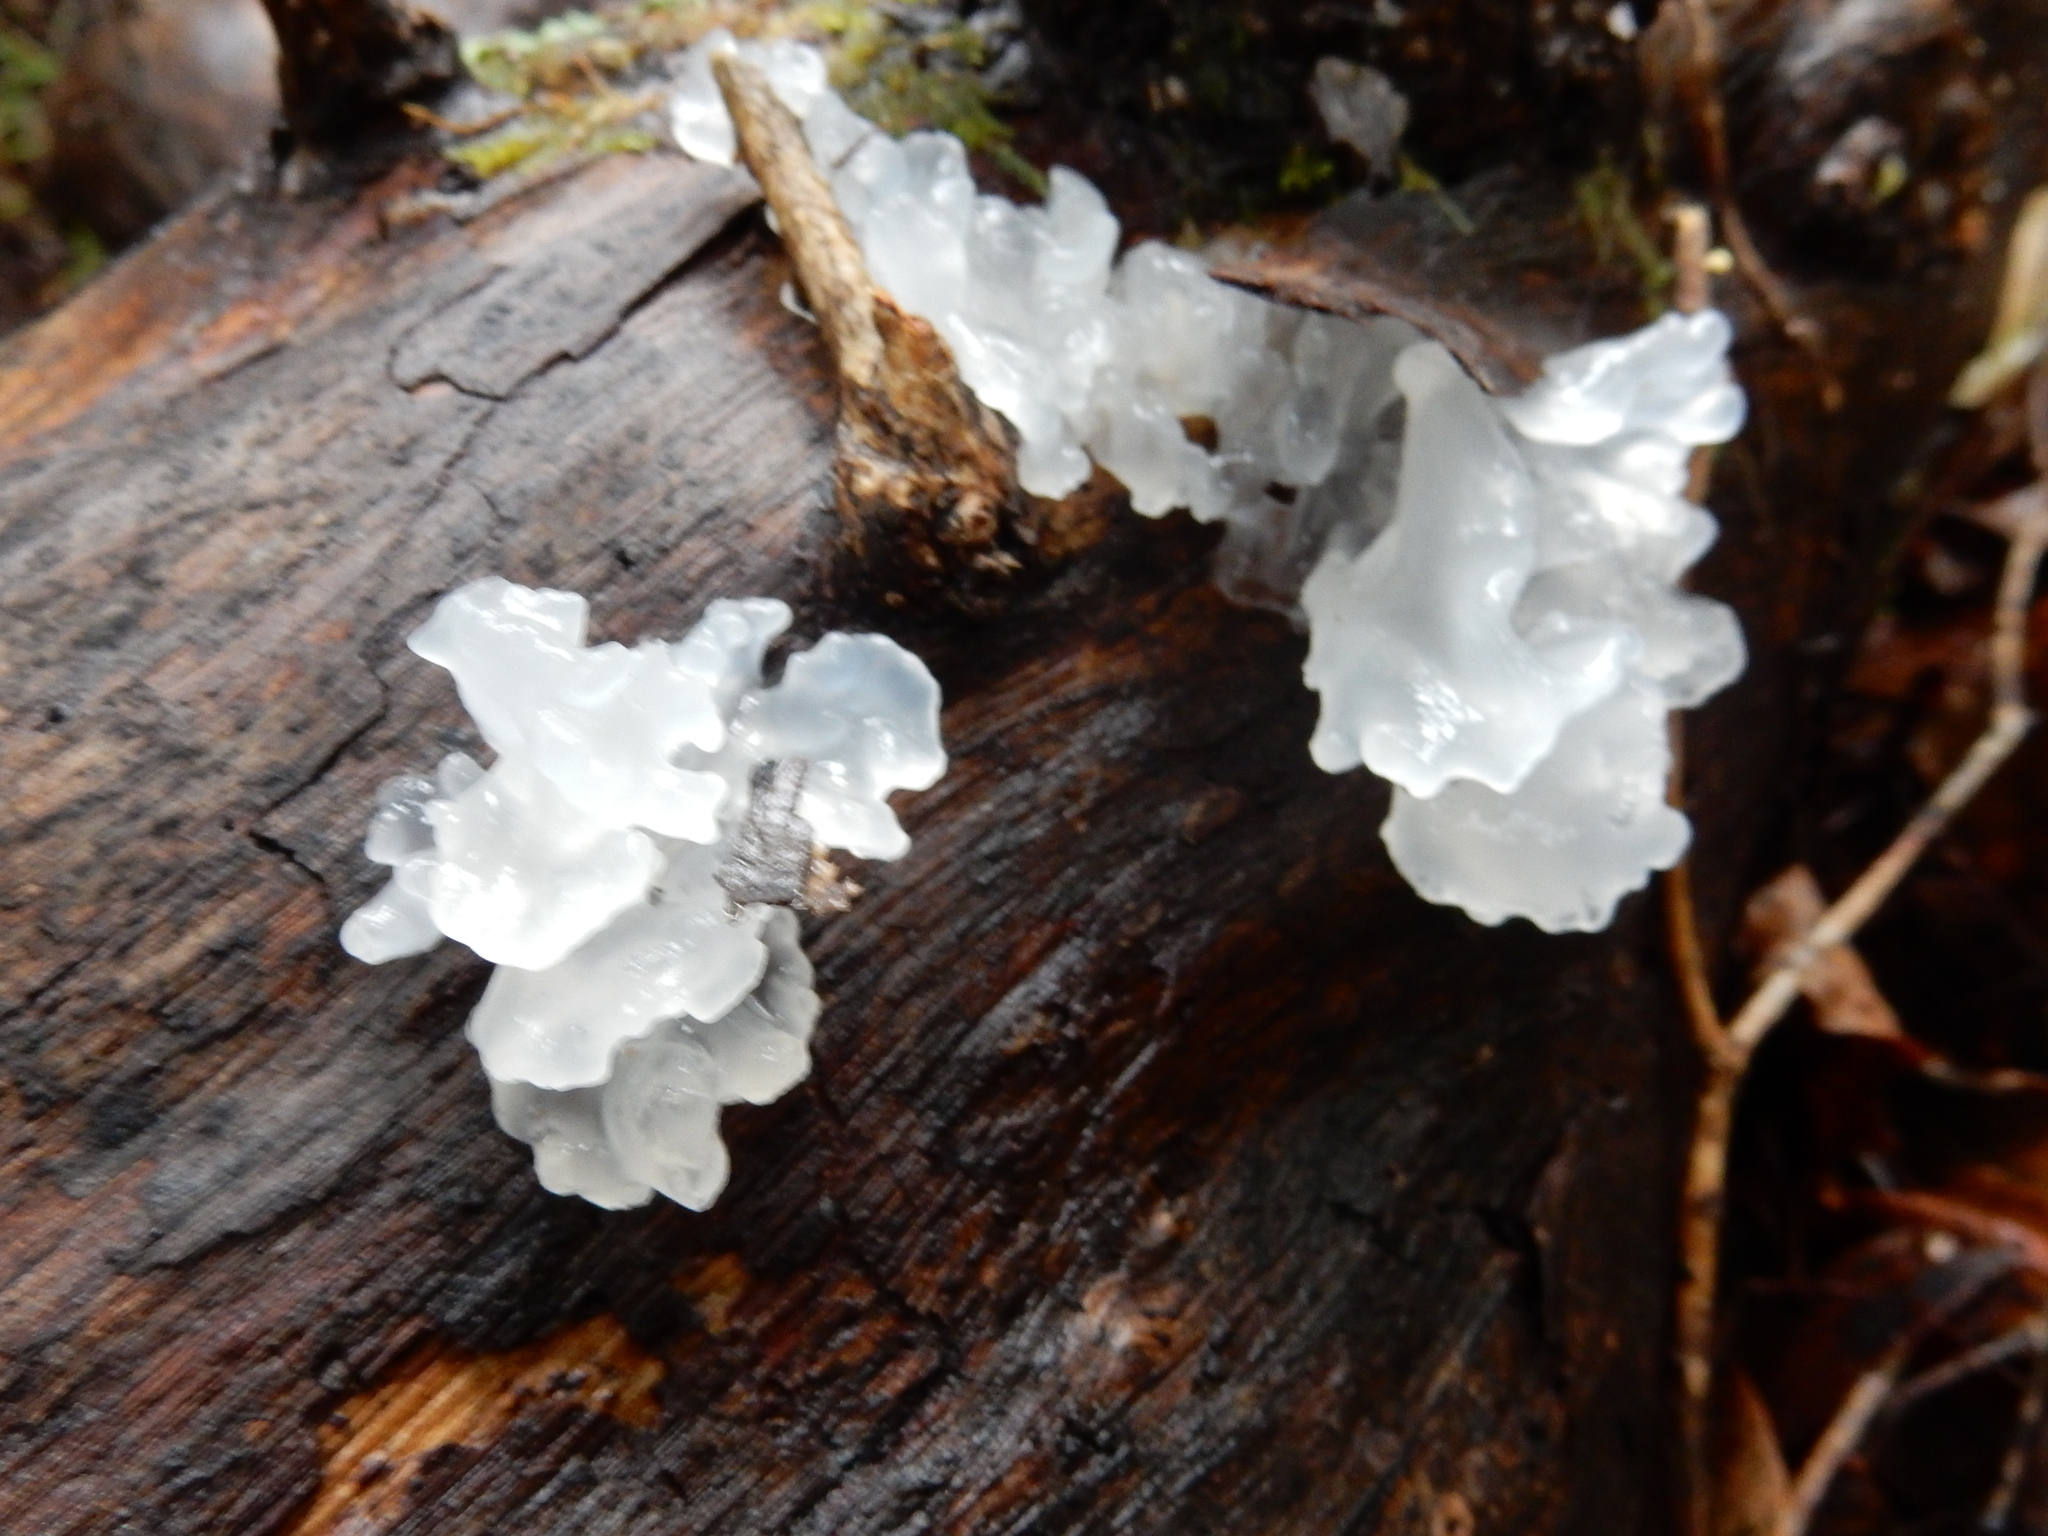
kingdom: Fungi
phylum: Basidiomycota
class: Tremellomycetes
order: Tremellales
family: Tremellaceae
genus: Tremella
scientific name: Tremella fuciformis
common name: Snow fungus
